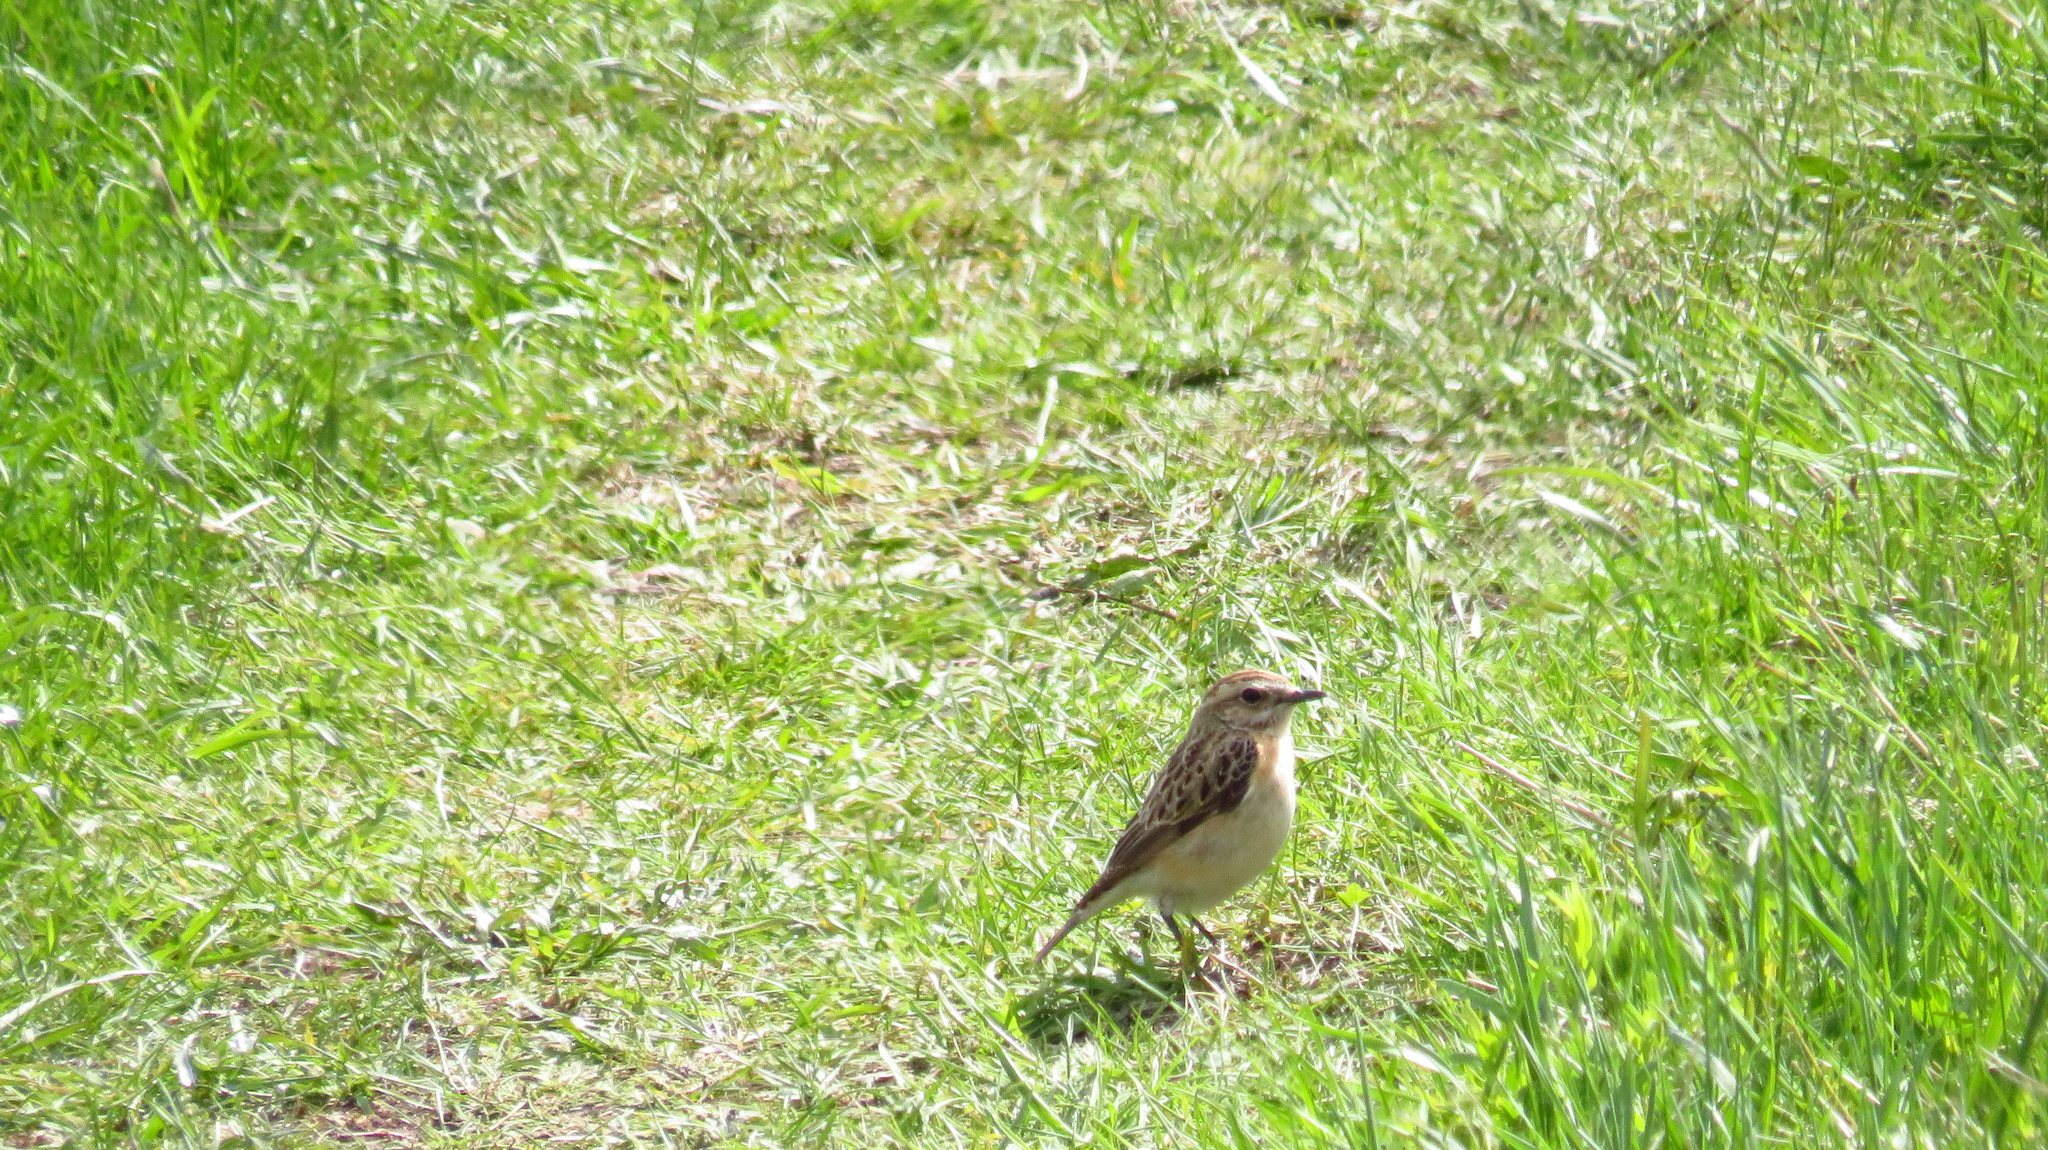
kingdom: Animalia
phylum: Chordata
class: Aves
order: Passeriformes
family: Muscicapidae
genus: Saxicola
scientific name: Saxicola rubetra
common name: Whinchat
